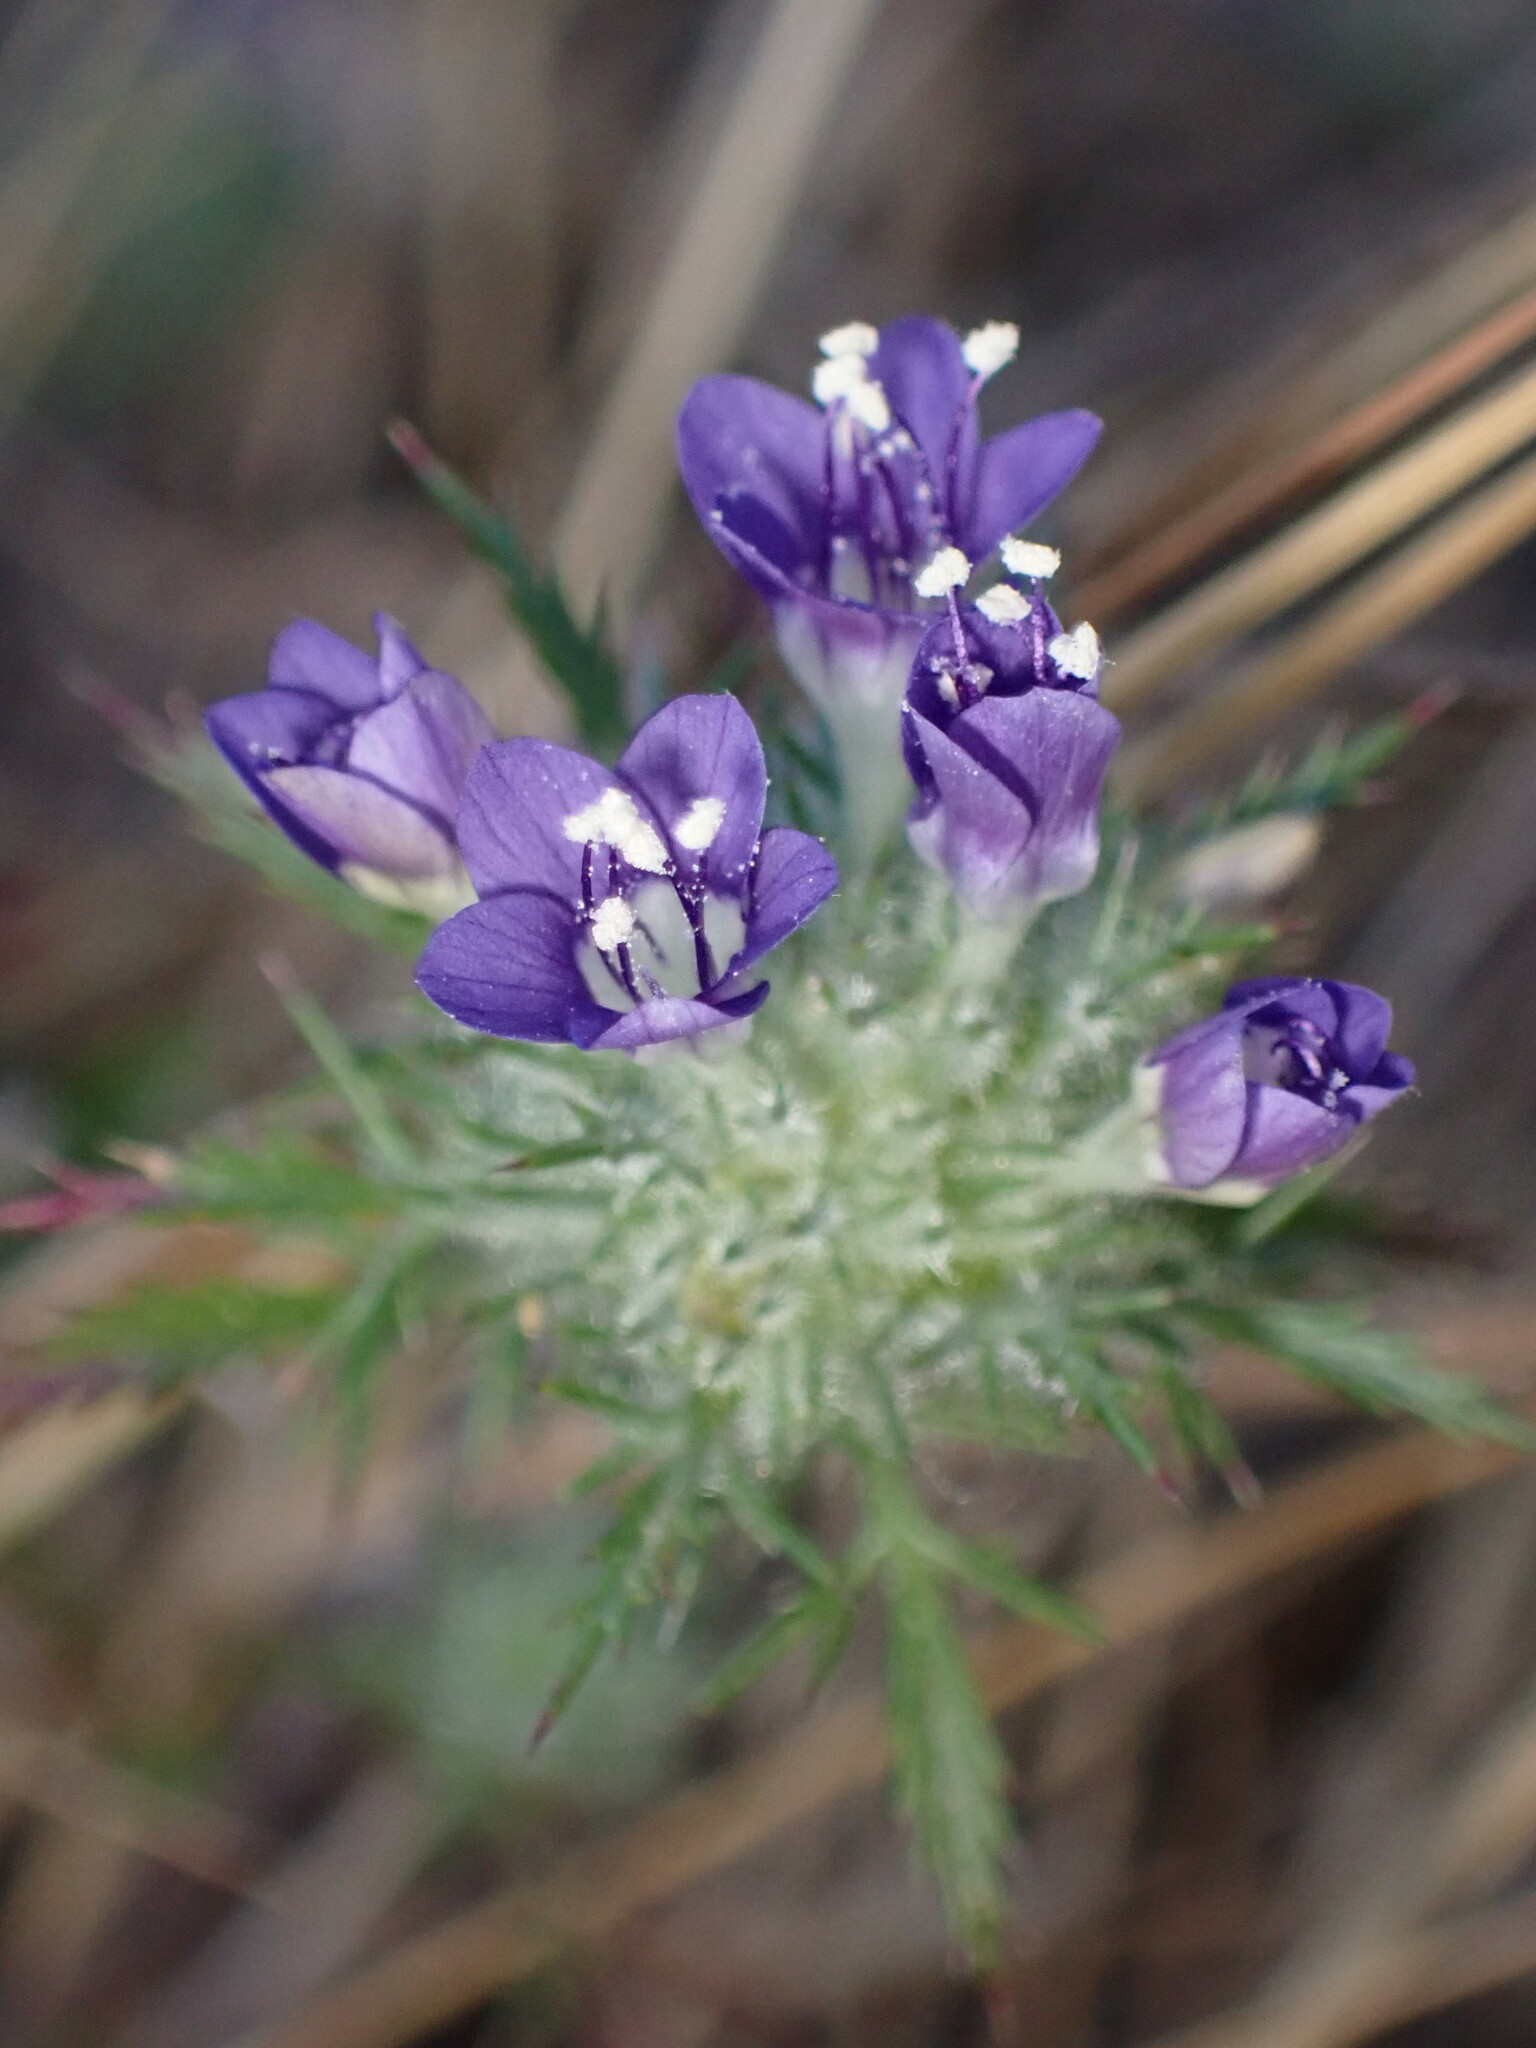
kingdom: Plantae
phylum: Tracheophyta
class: Magnoliopsida
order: Ericales
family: Polemoniaceae
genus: Navarretia
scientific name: Navarretia pubescens
